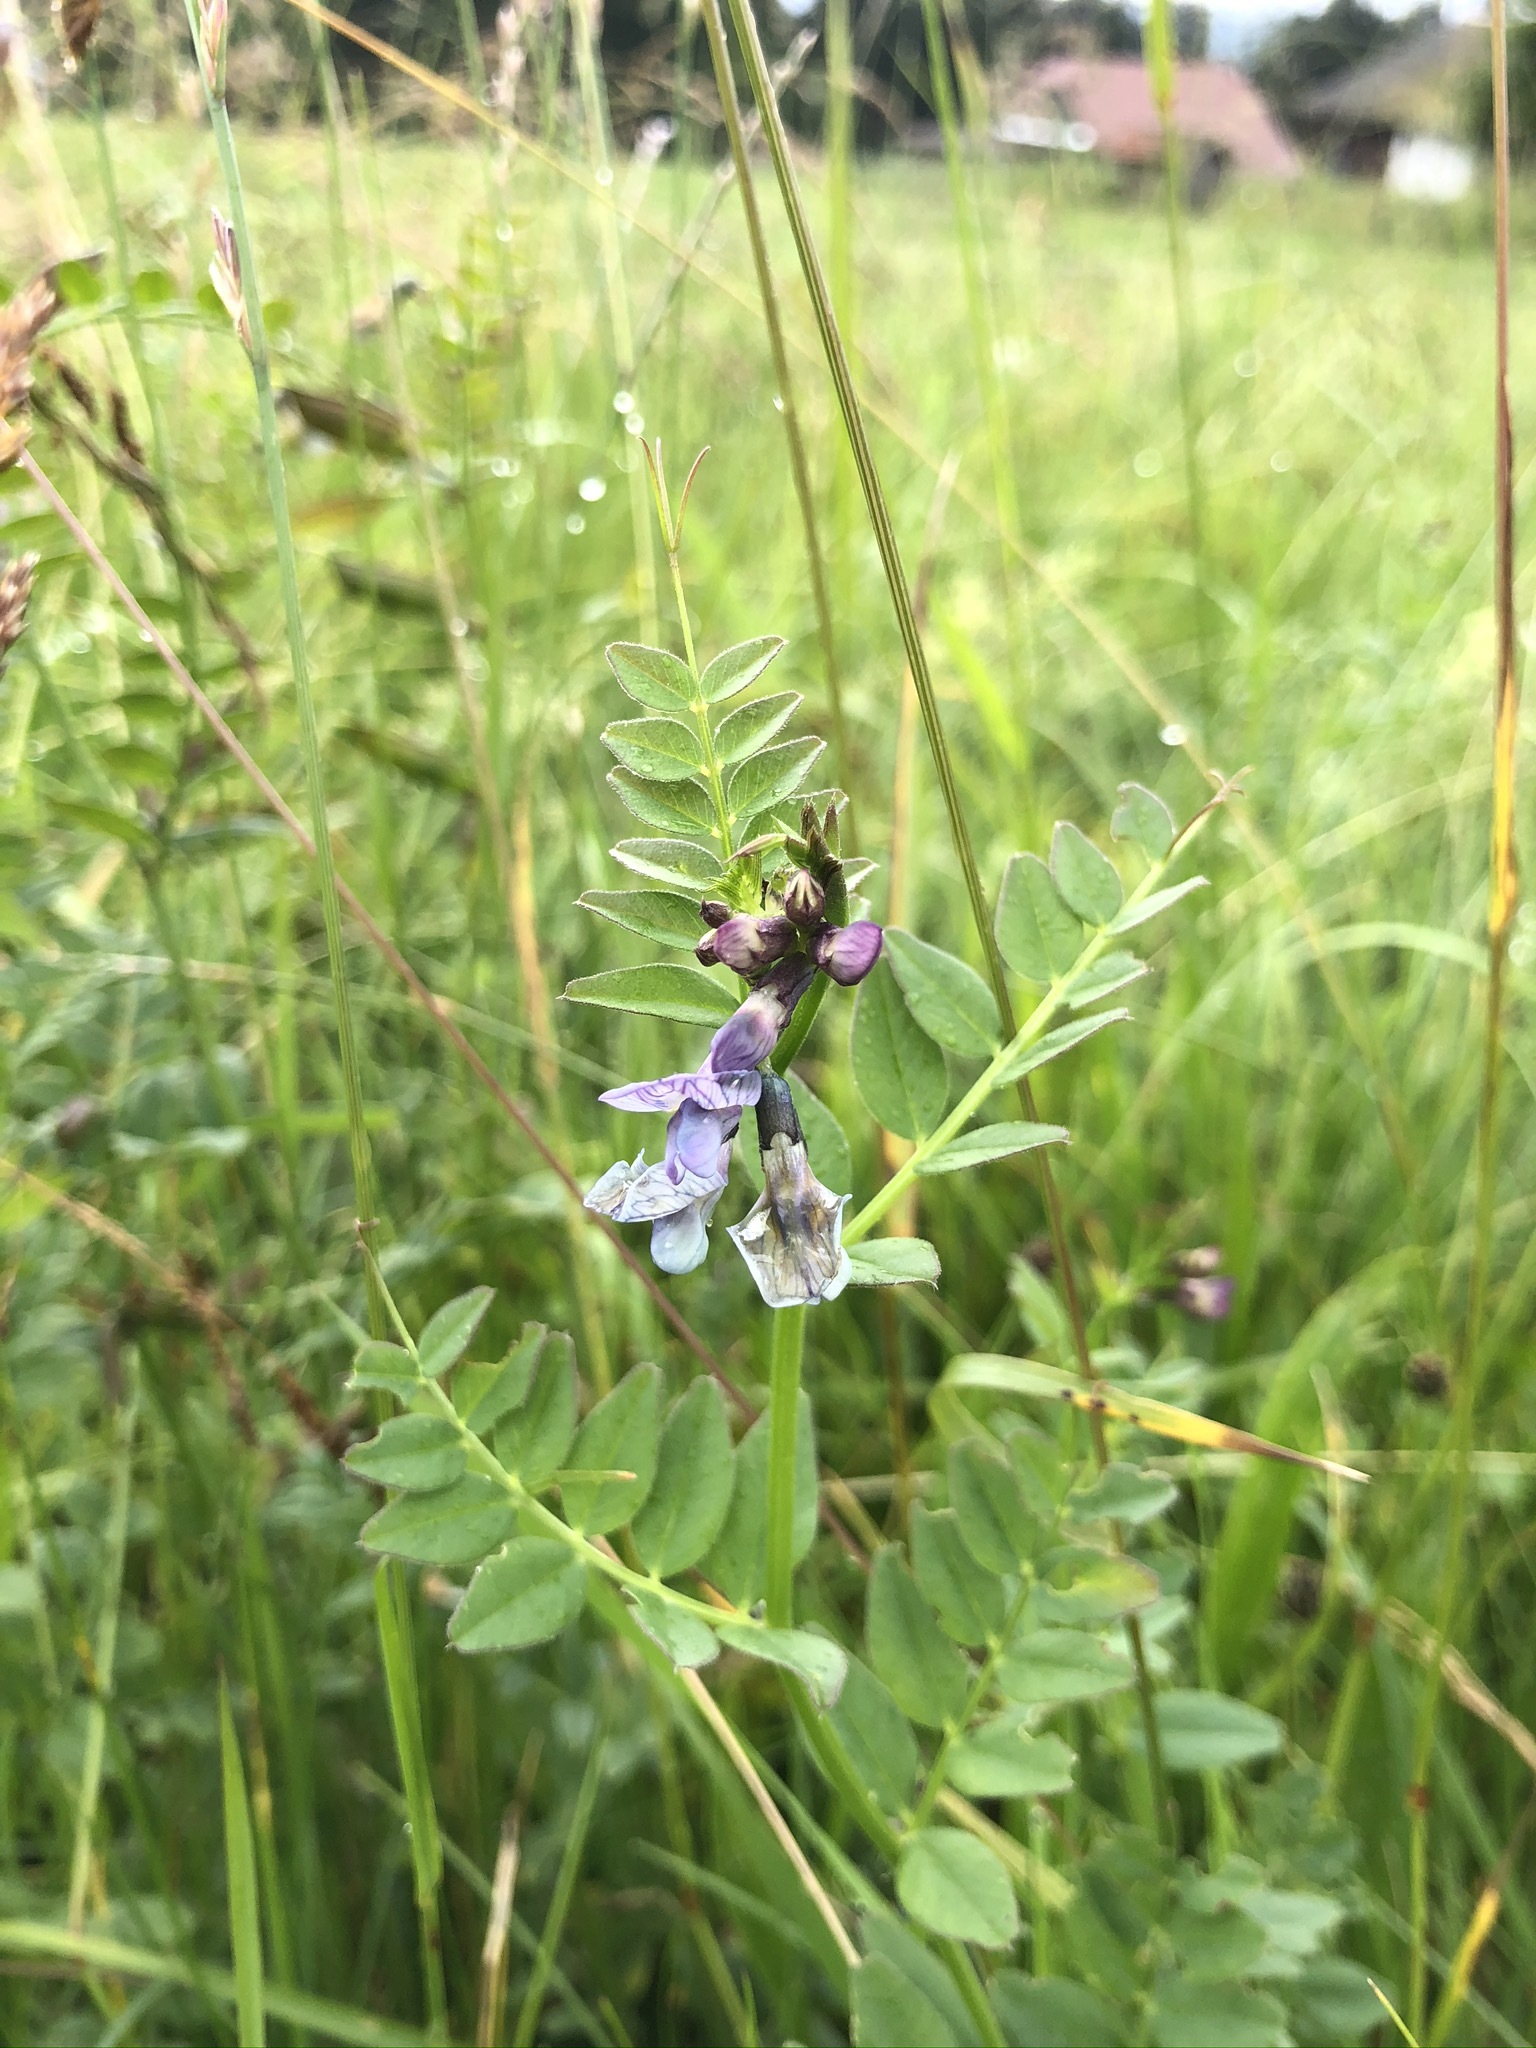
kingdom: Plantae
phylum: Tracheophyta
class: Magnoliopsida
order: Fabales
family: Fabaceae
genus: Vicia
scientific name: Vicia sepium
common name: Bush vetch
